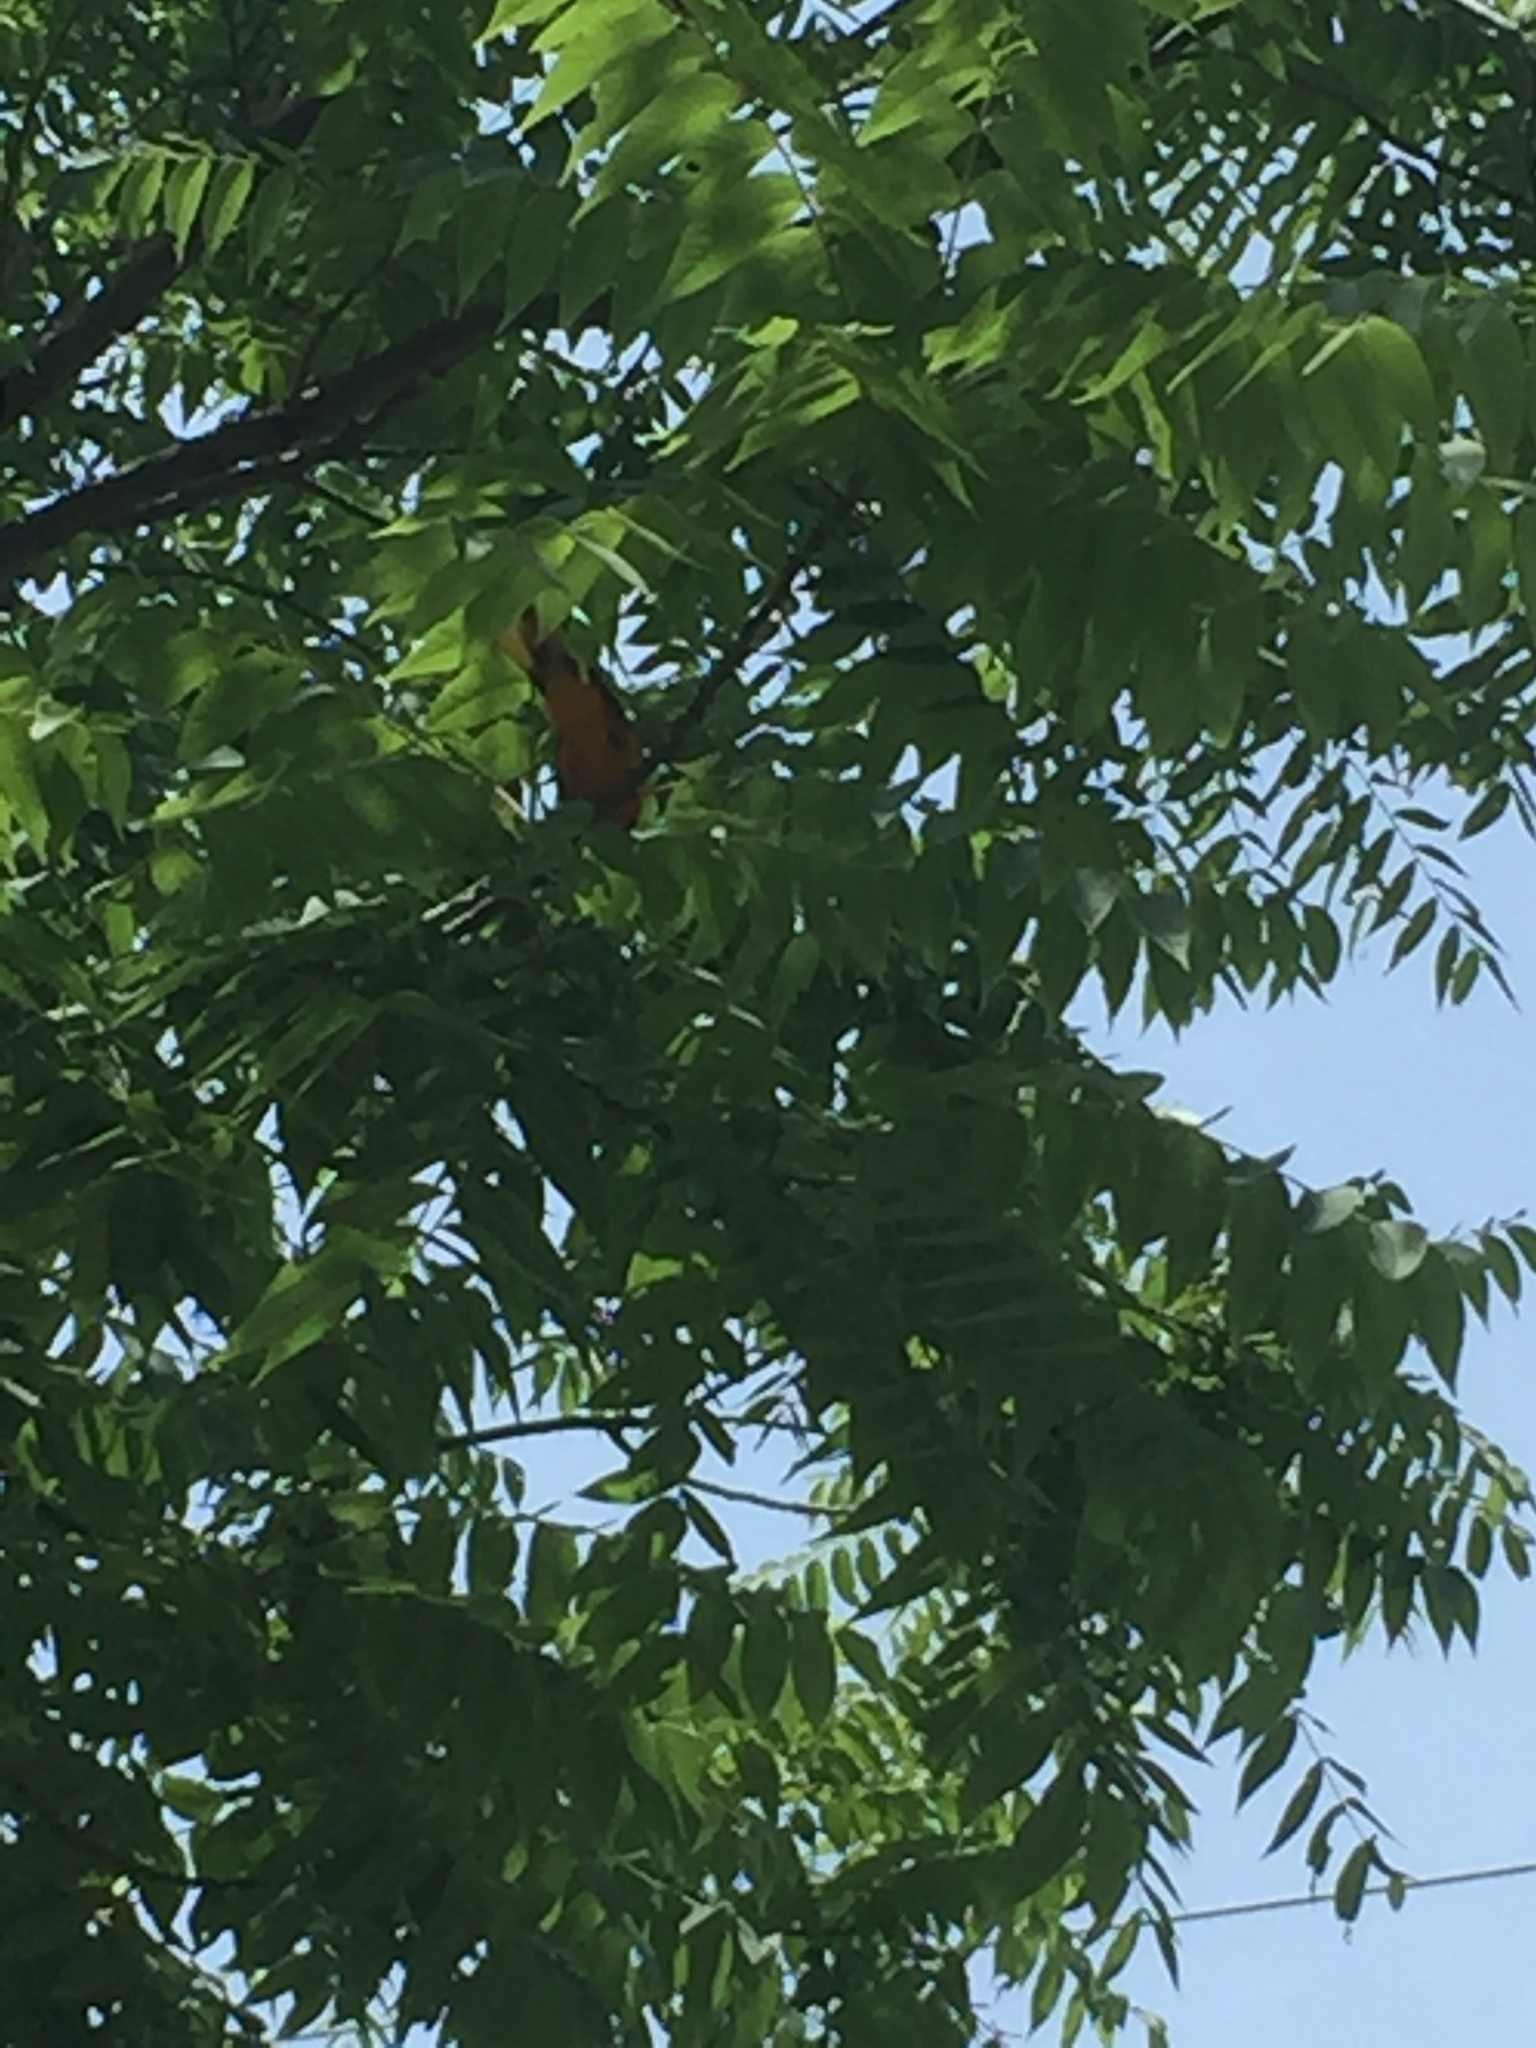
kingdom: Animalia
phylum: Chordata
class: Aves
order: Passeriformes
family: Icteridae
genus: Icterus
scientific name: Icterus galbula
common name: Baltimore oriole
